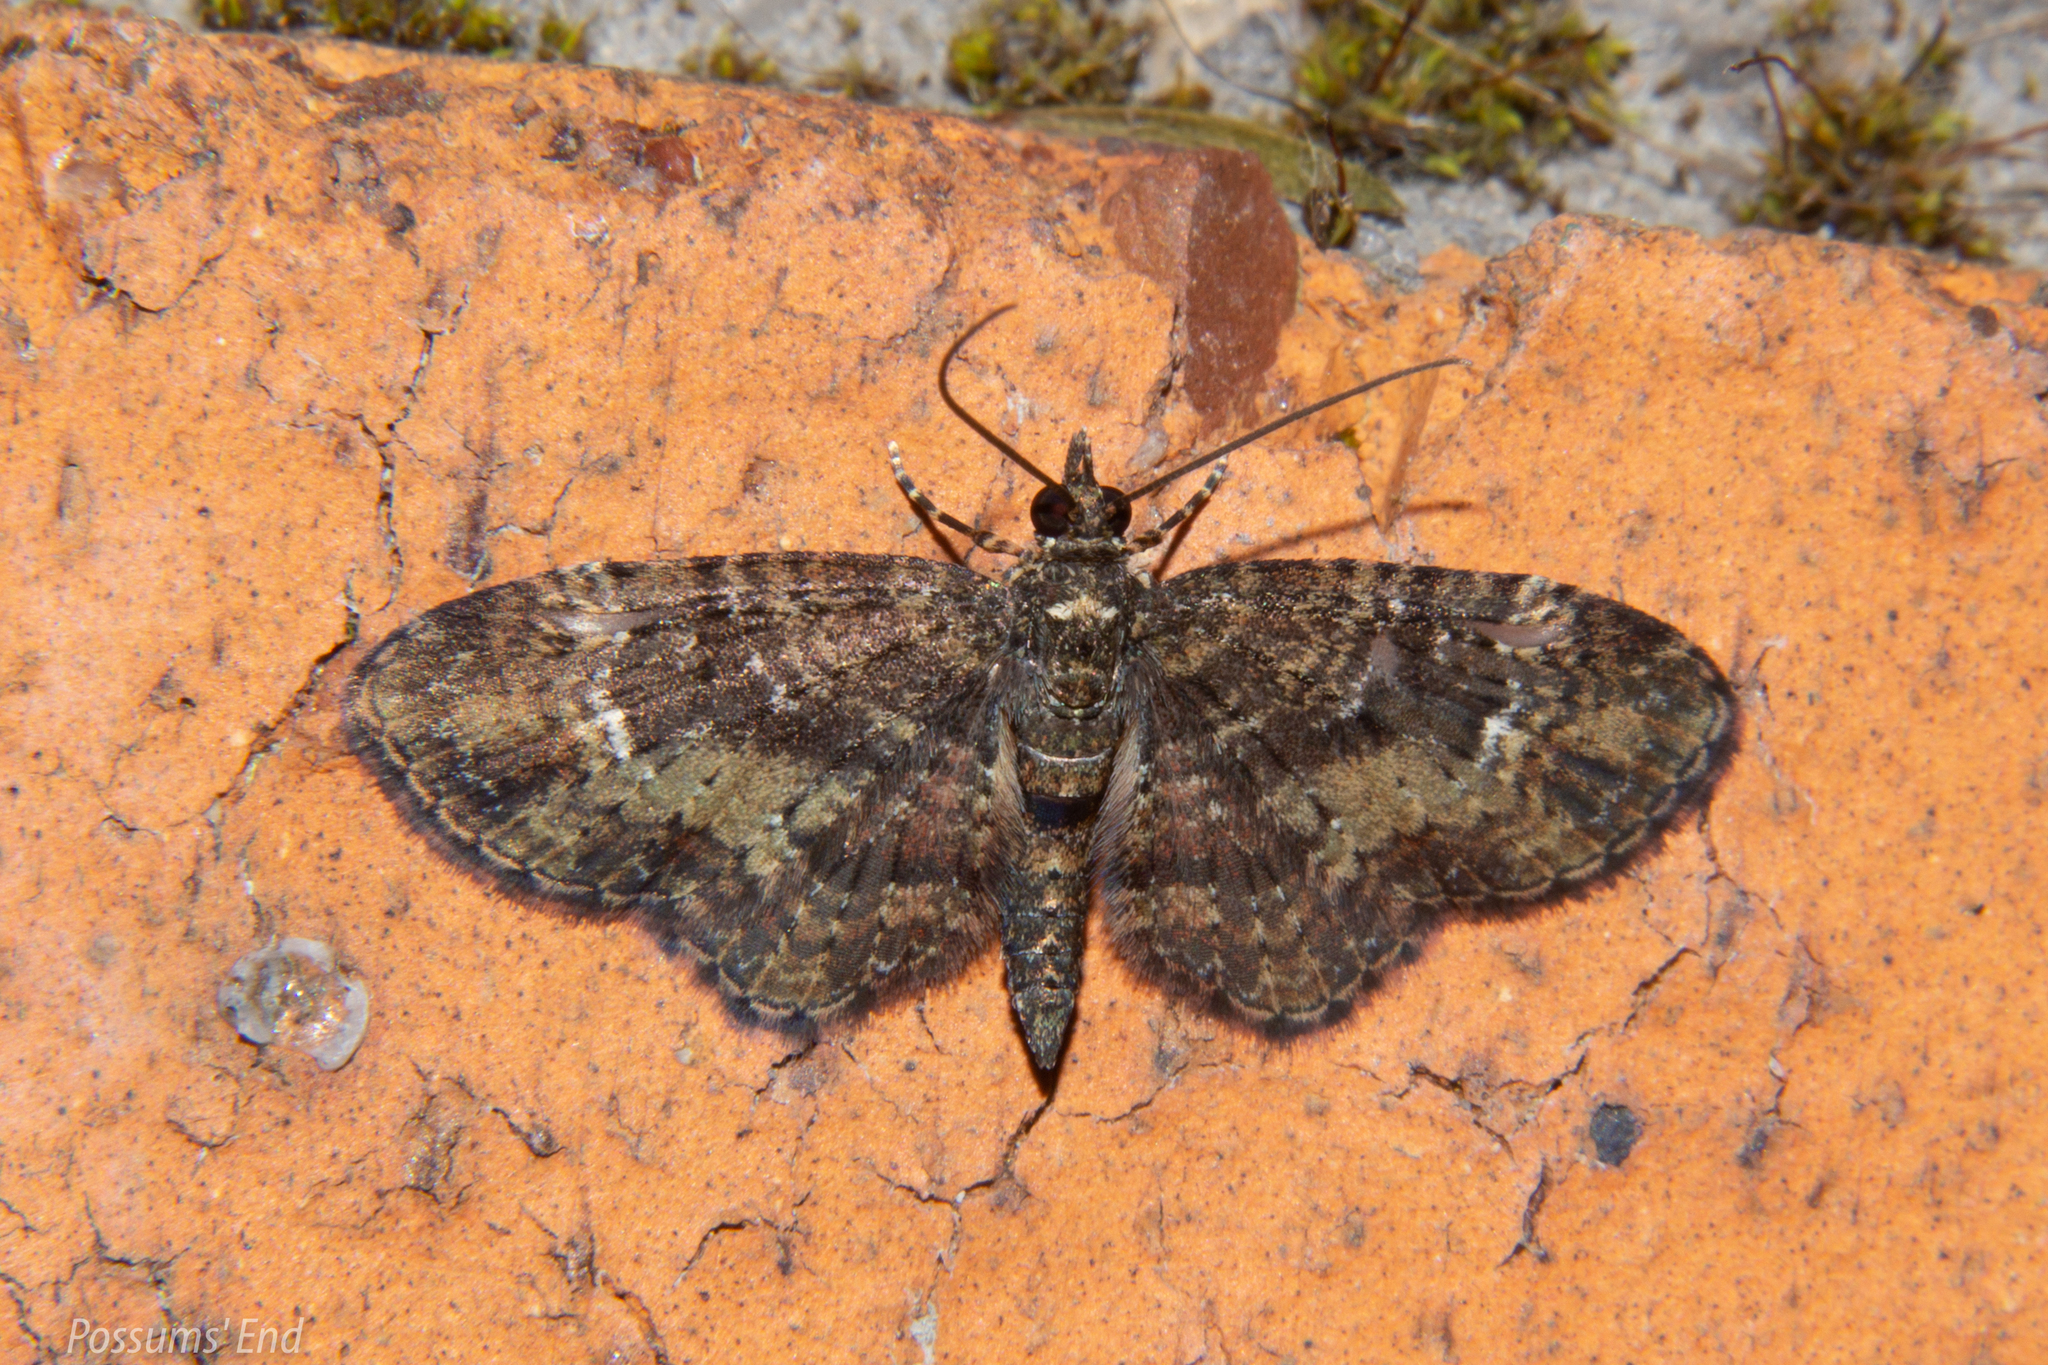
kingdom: Animalia
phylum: Arthropoda
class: Insecta
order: Lepidoptera
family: Geometridae
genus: Pasiphilodes
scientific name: Pasiphilodes testulata
